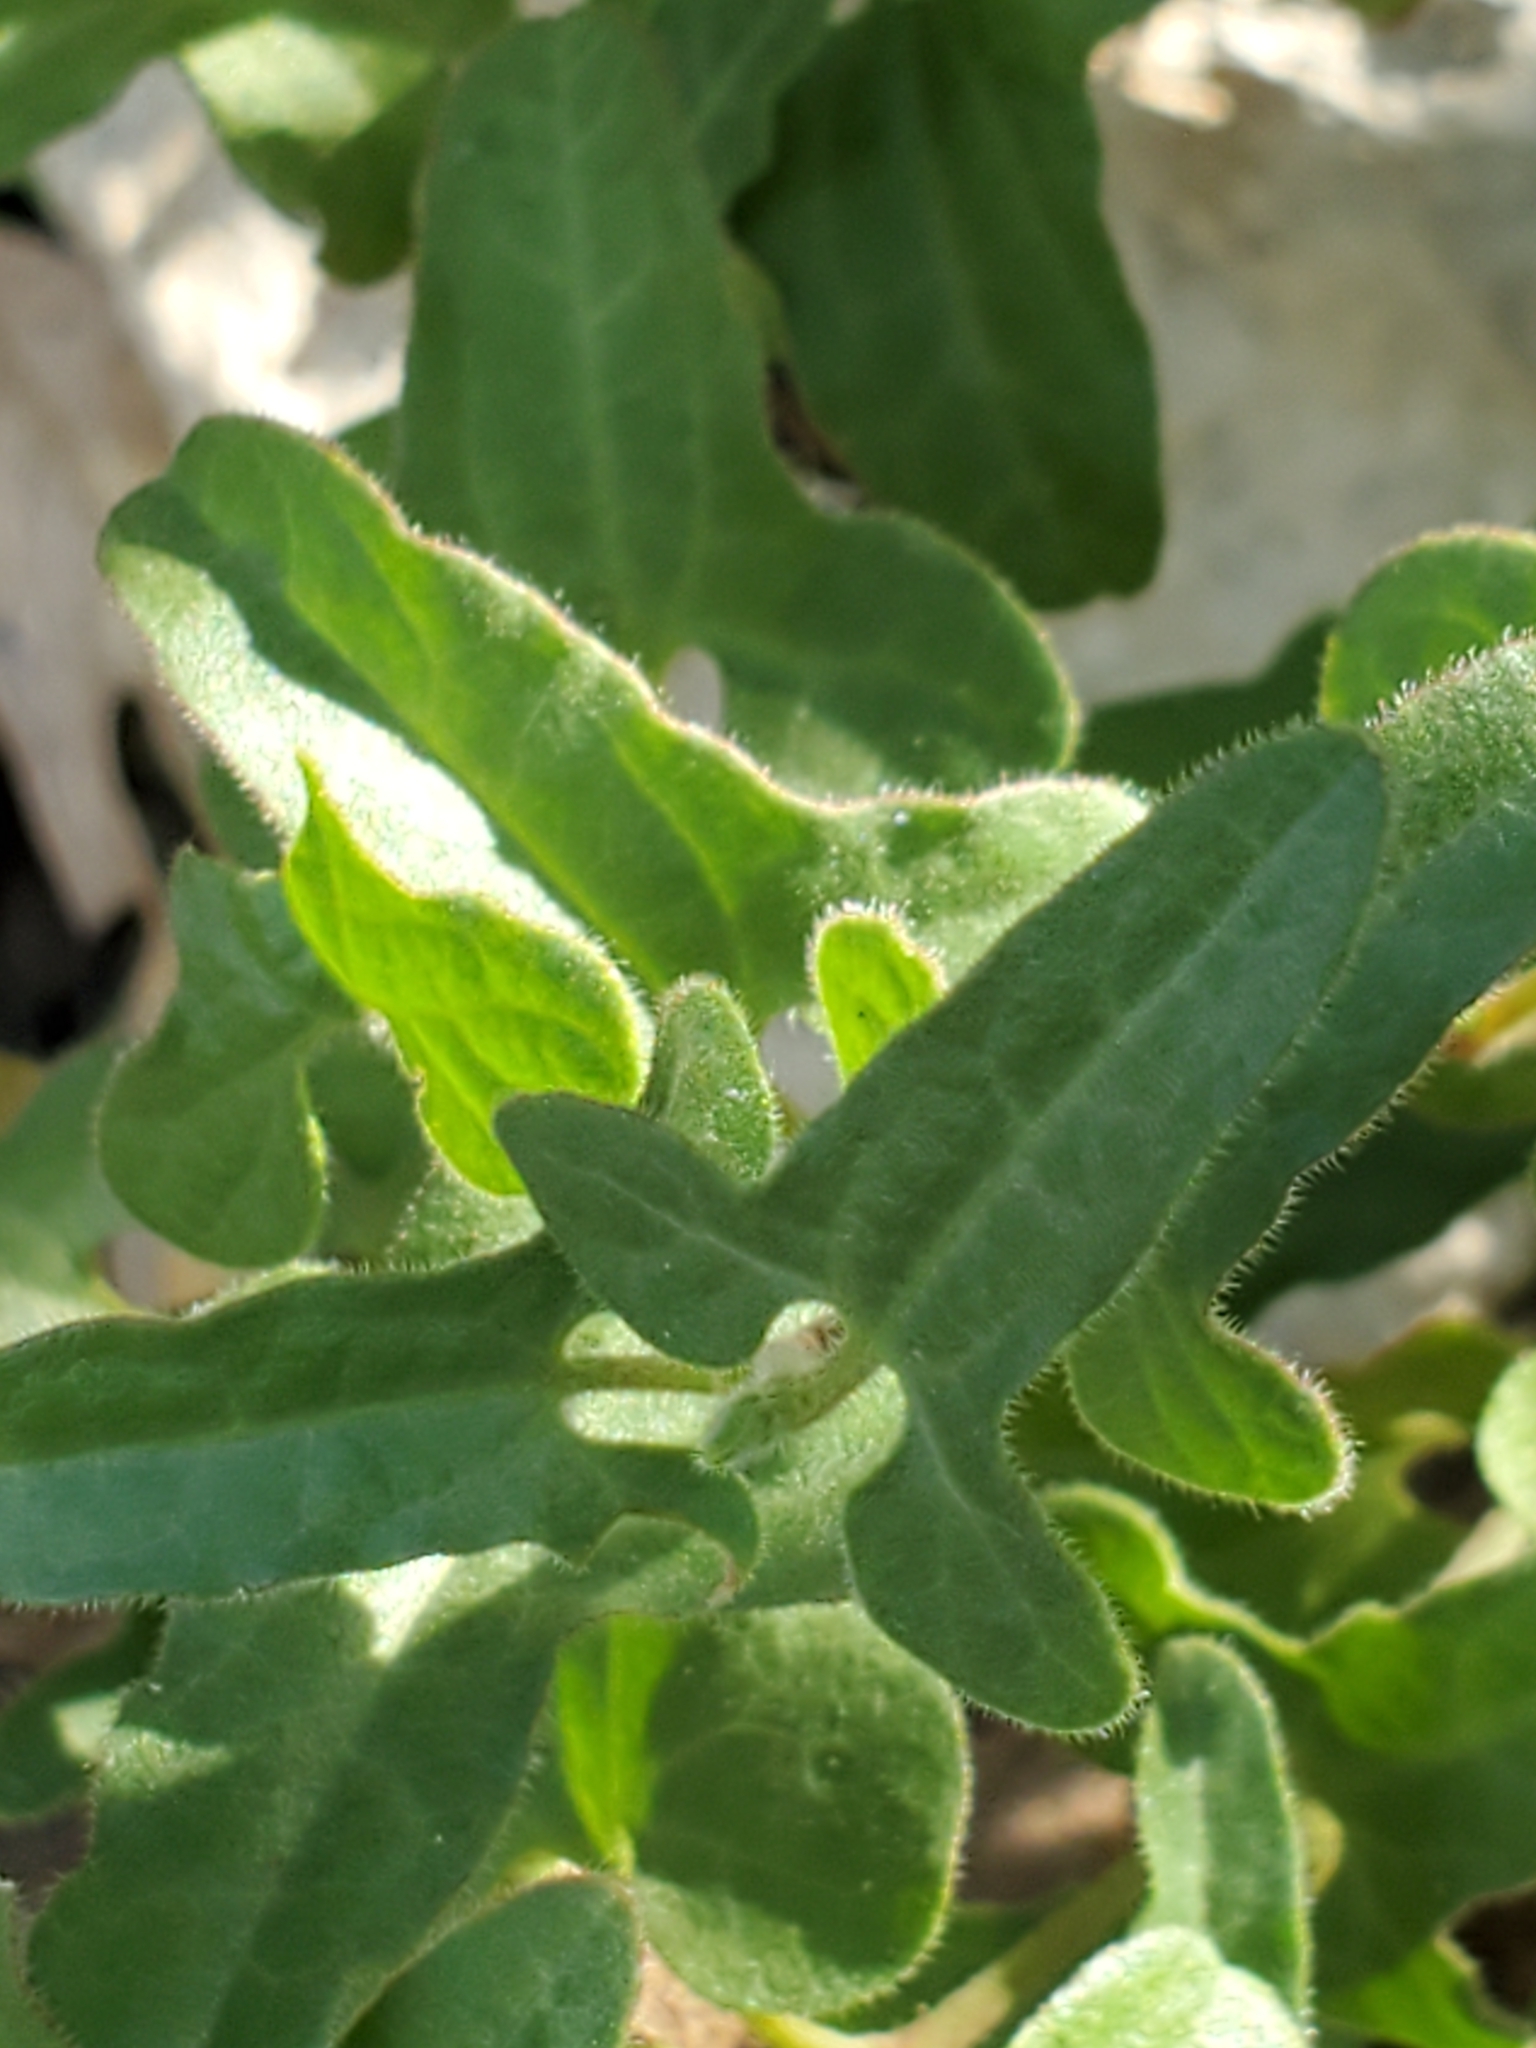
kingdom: Plantae
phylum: Tracheophyta
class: Magnoliopsida
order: Piperales
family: Aristolochiaceae
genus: Aristolochia
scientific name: Aristolochia coryi
